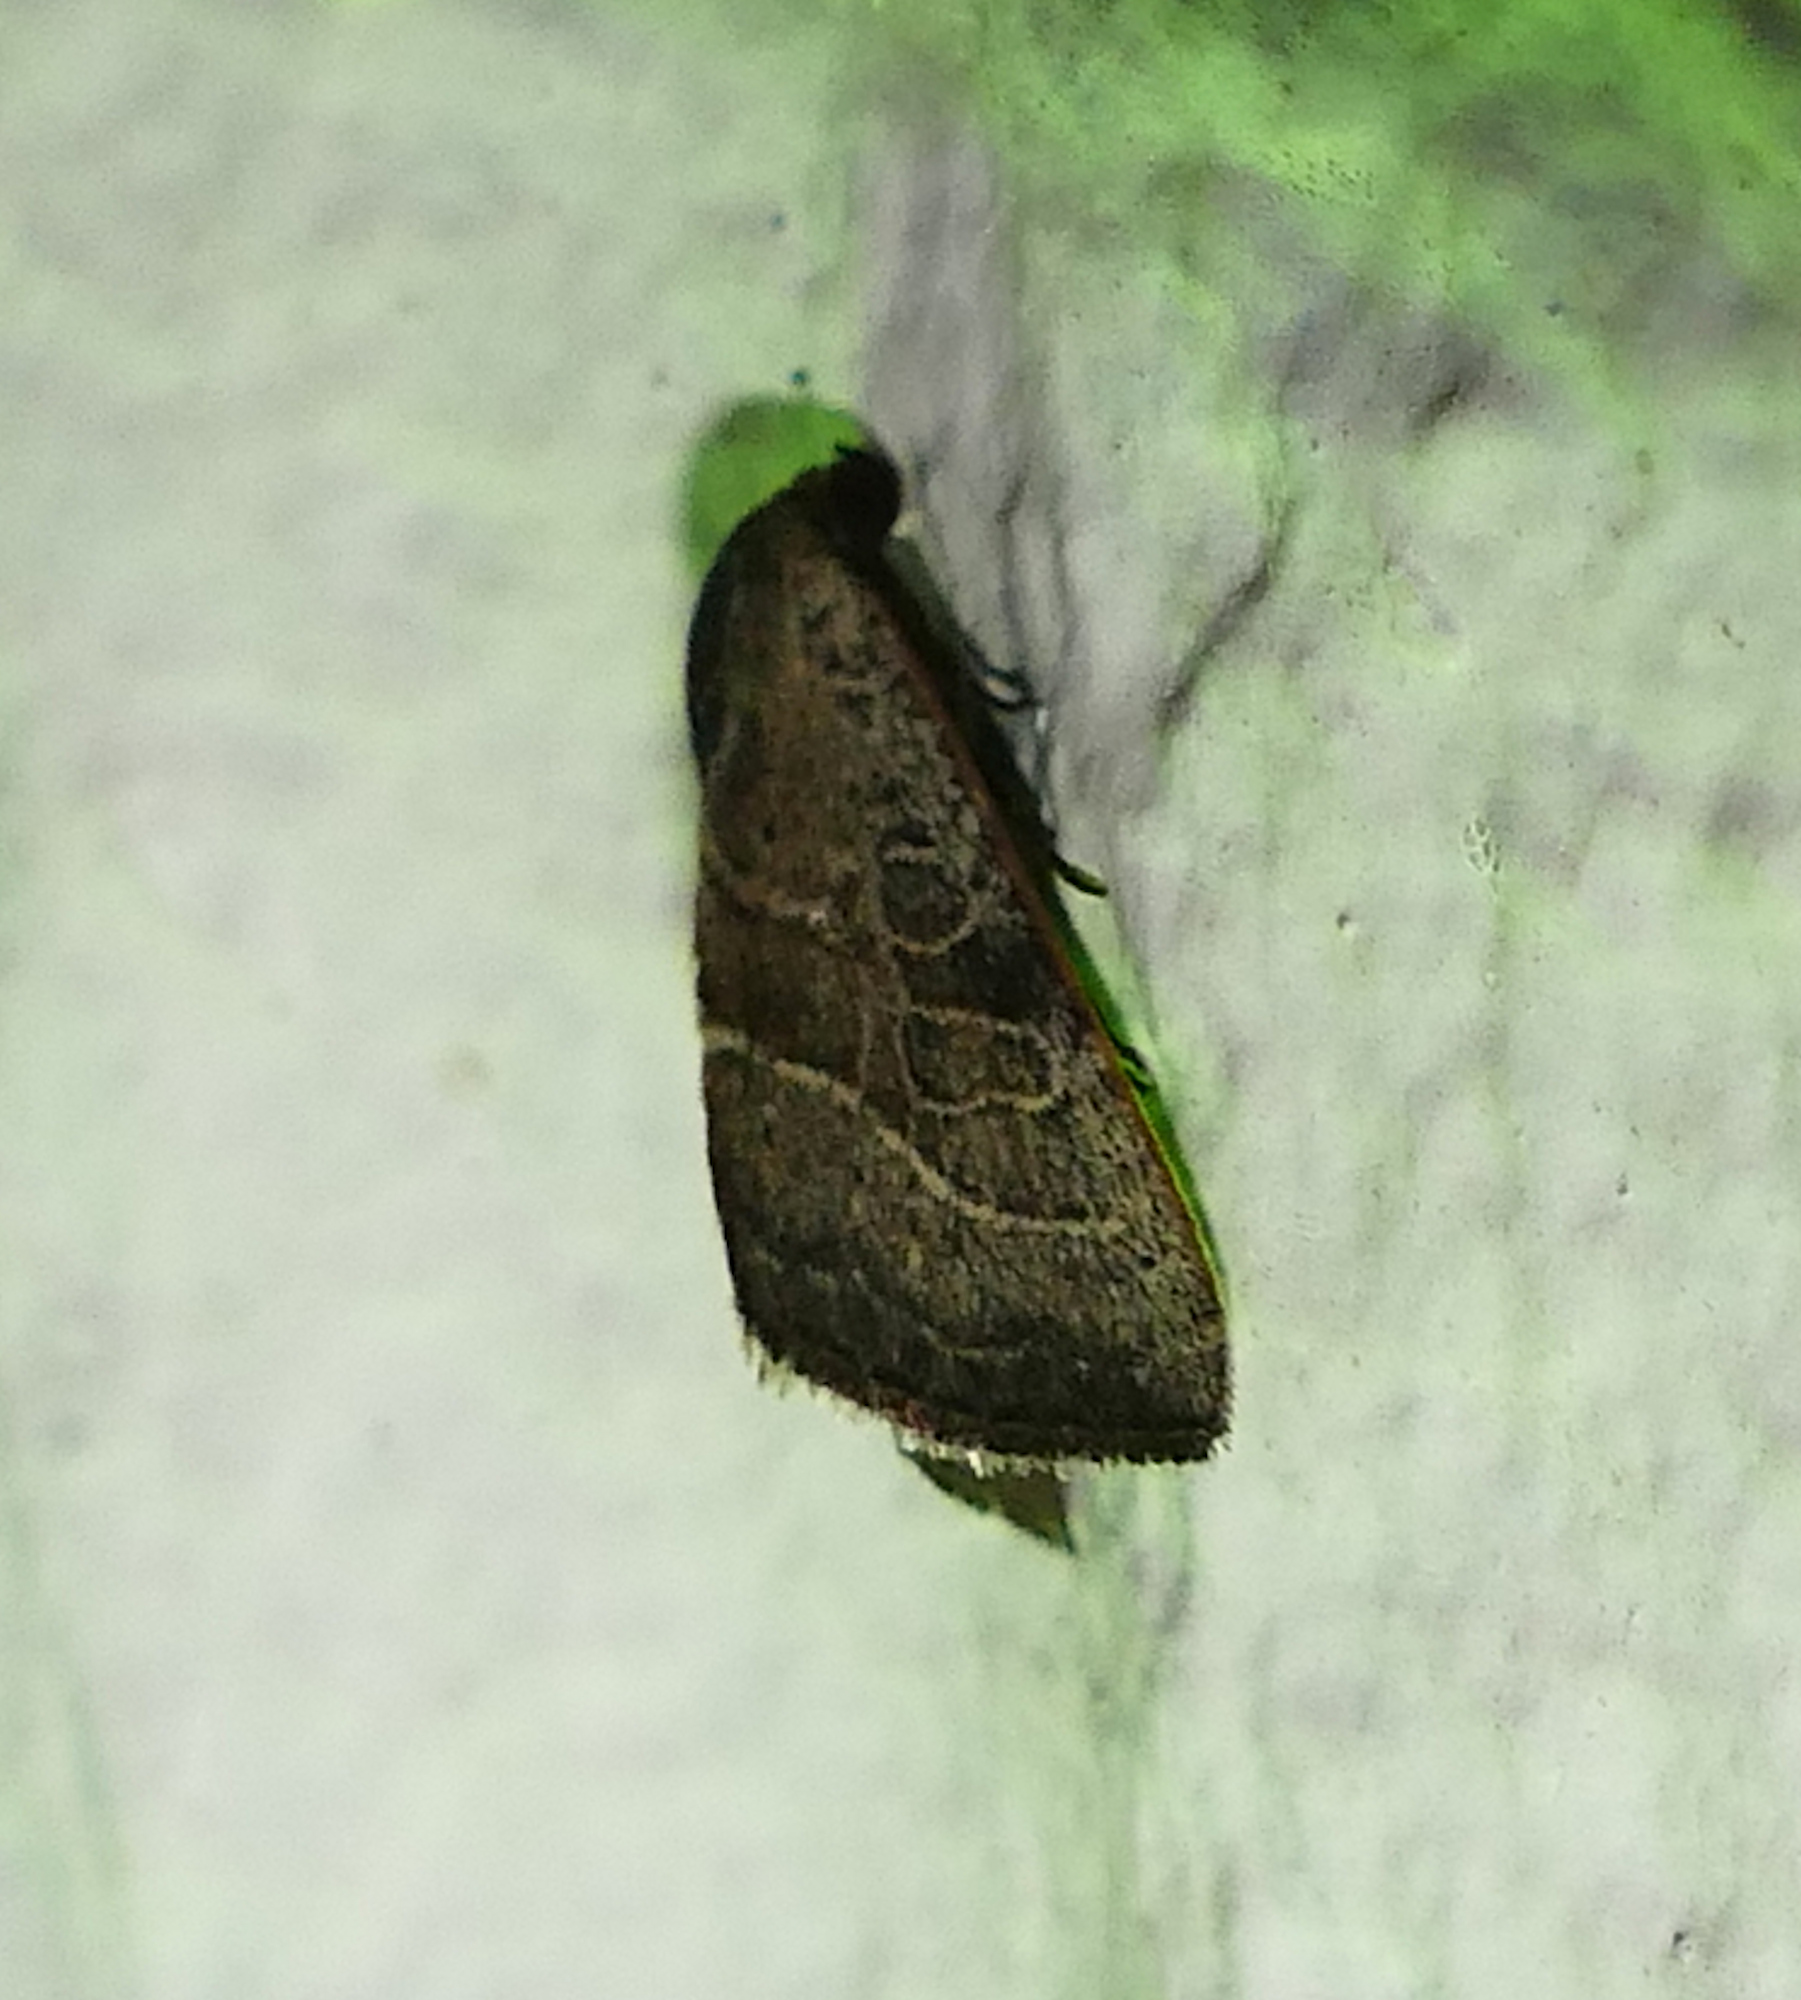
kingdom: Animalia
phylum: Arthropoda
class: Insecta
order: Lepidoptera
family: Noctuidae
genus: Galgula
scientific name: Galgula partita
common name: Wedgeling
